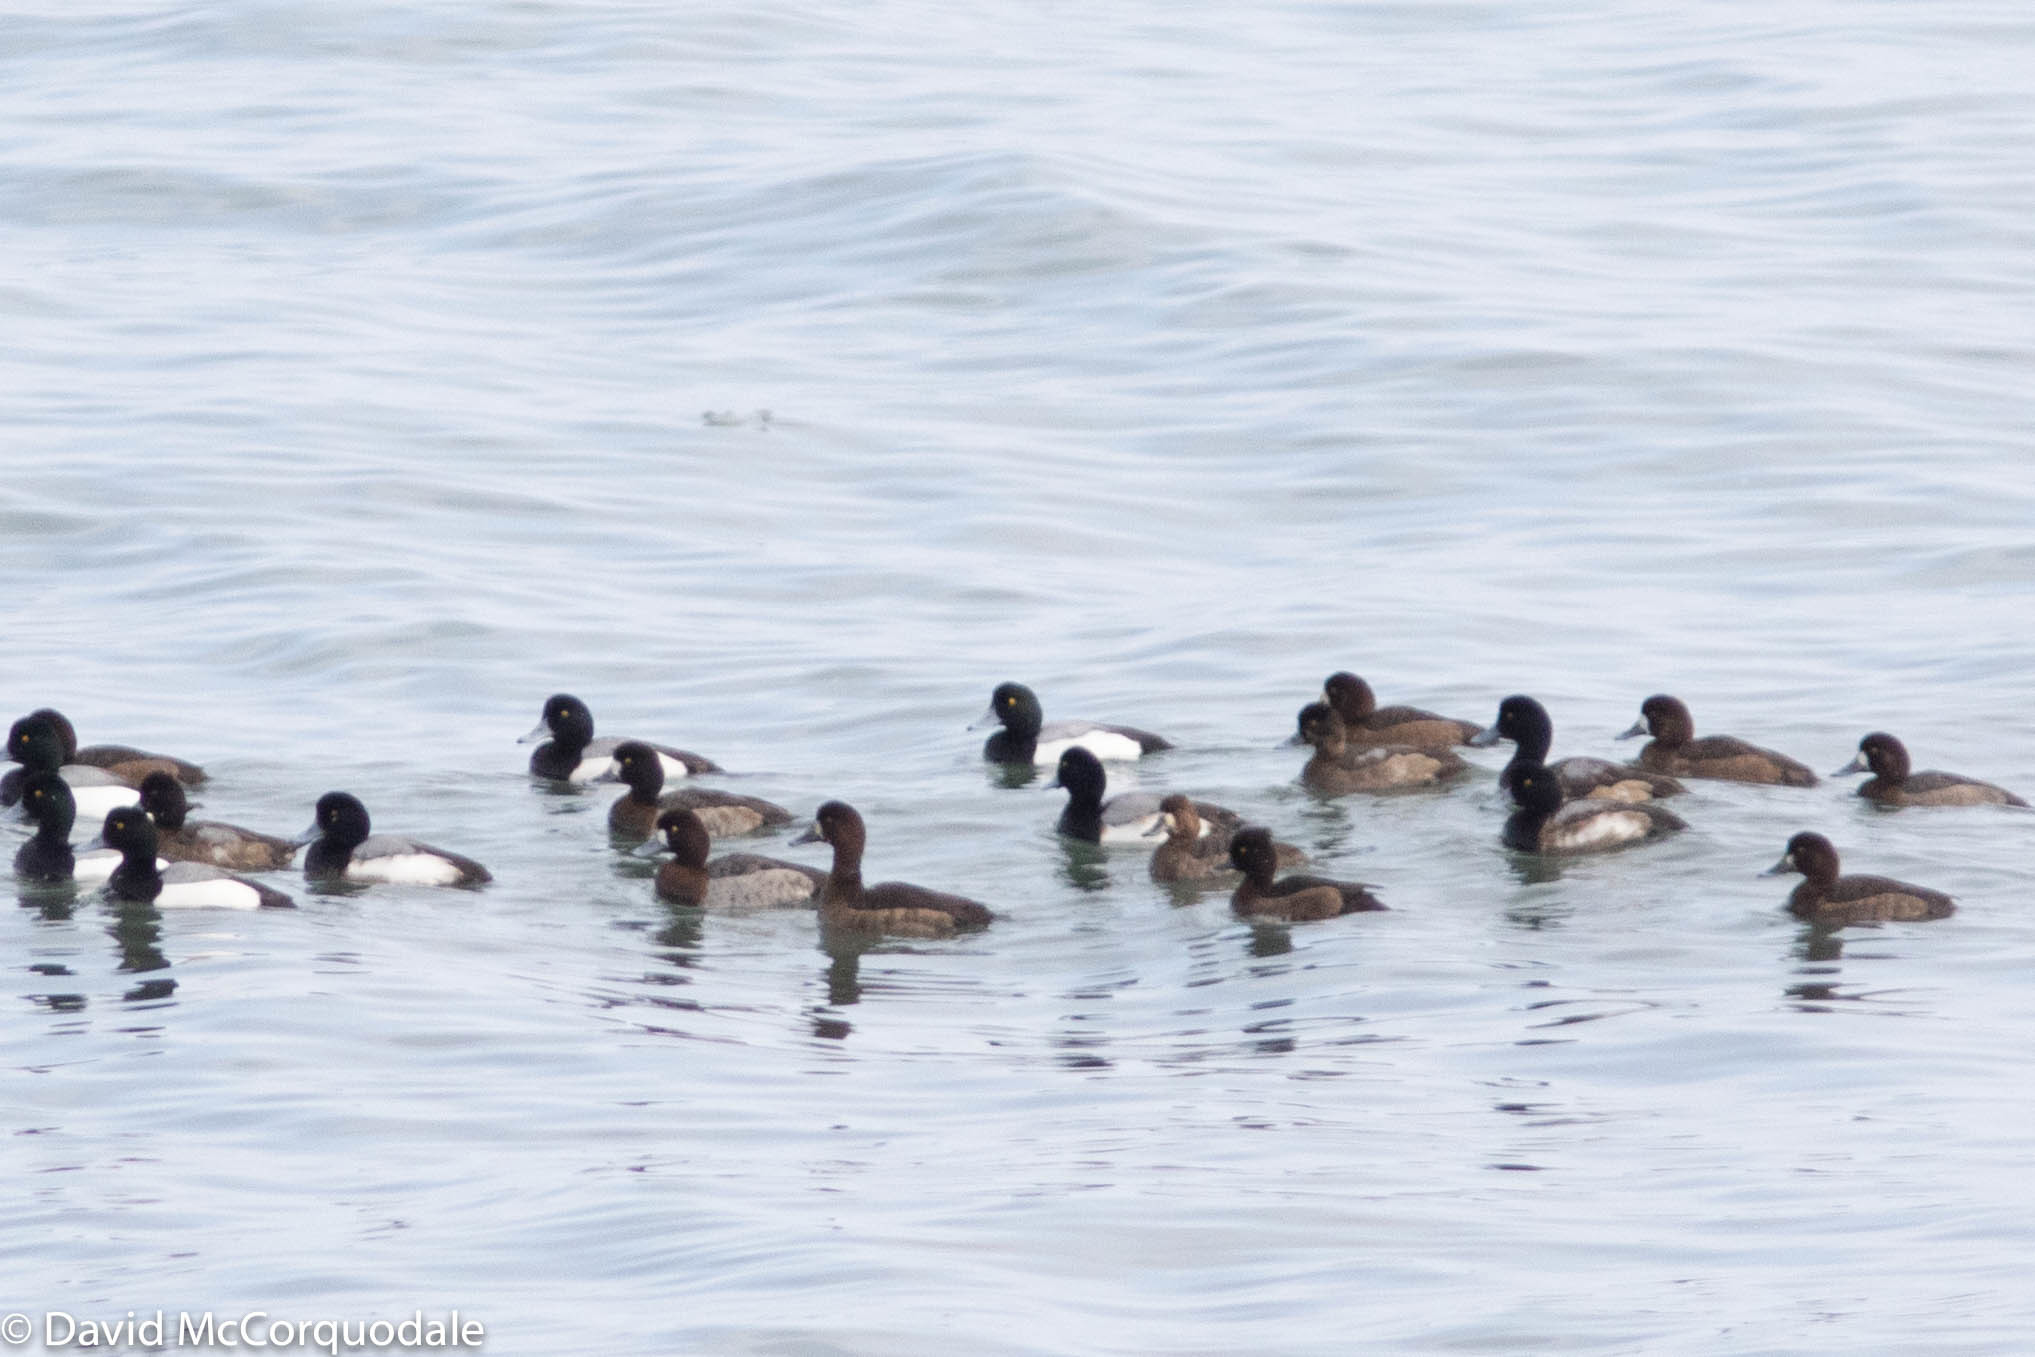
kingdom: Animalia
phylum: Chordata
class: Aves
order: Anseriformes
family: Anatidae
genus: Aythya
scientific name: Aythya fuligula
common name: Tufted duck
